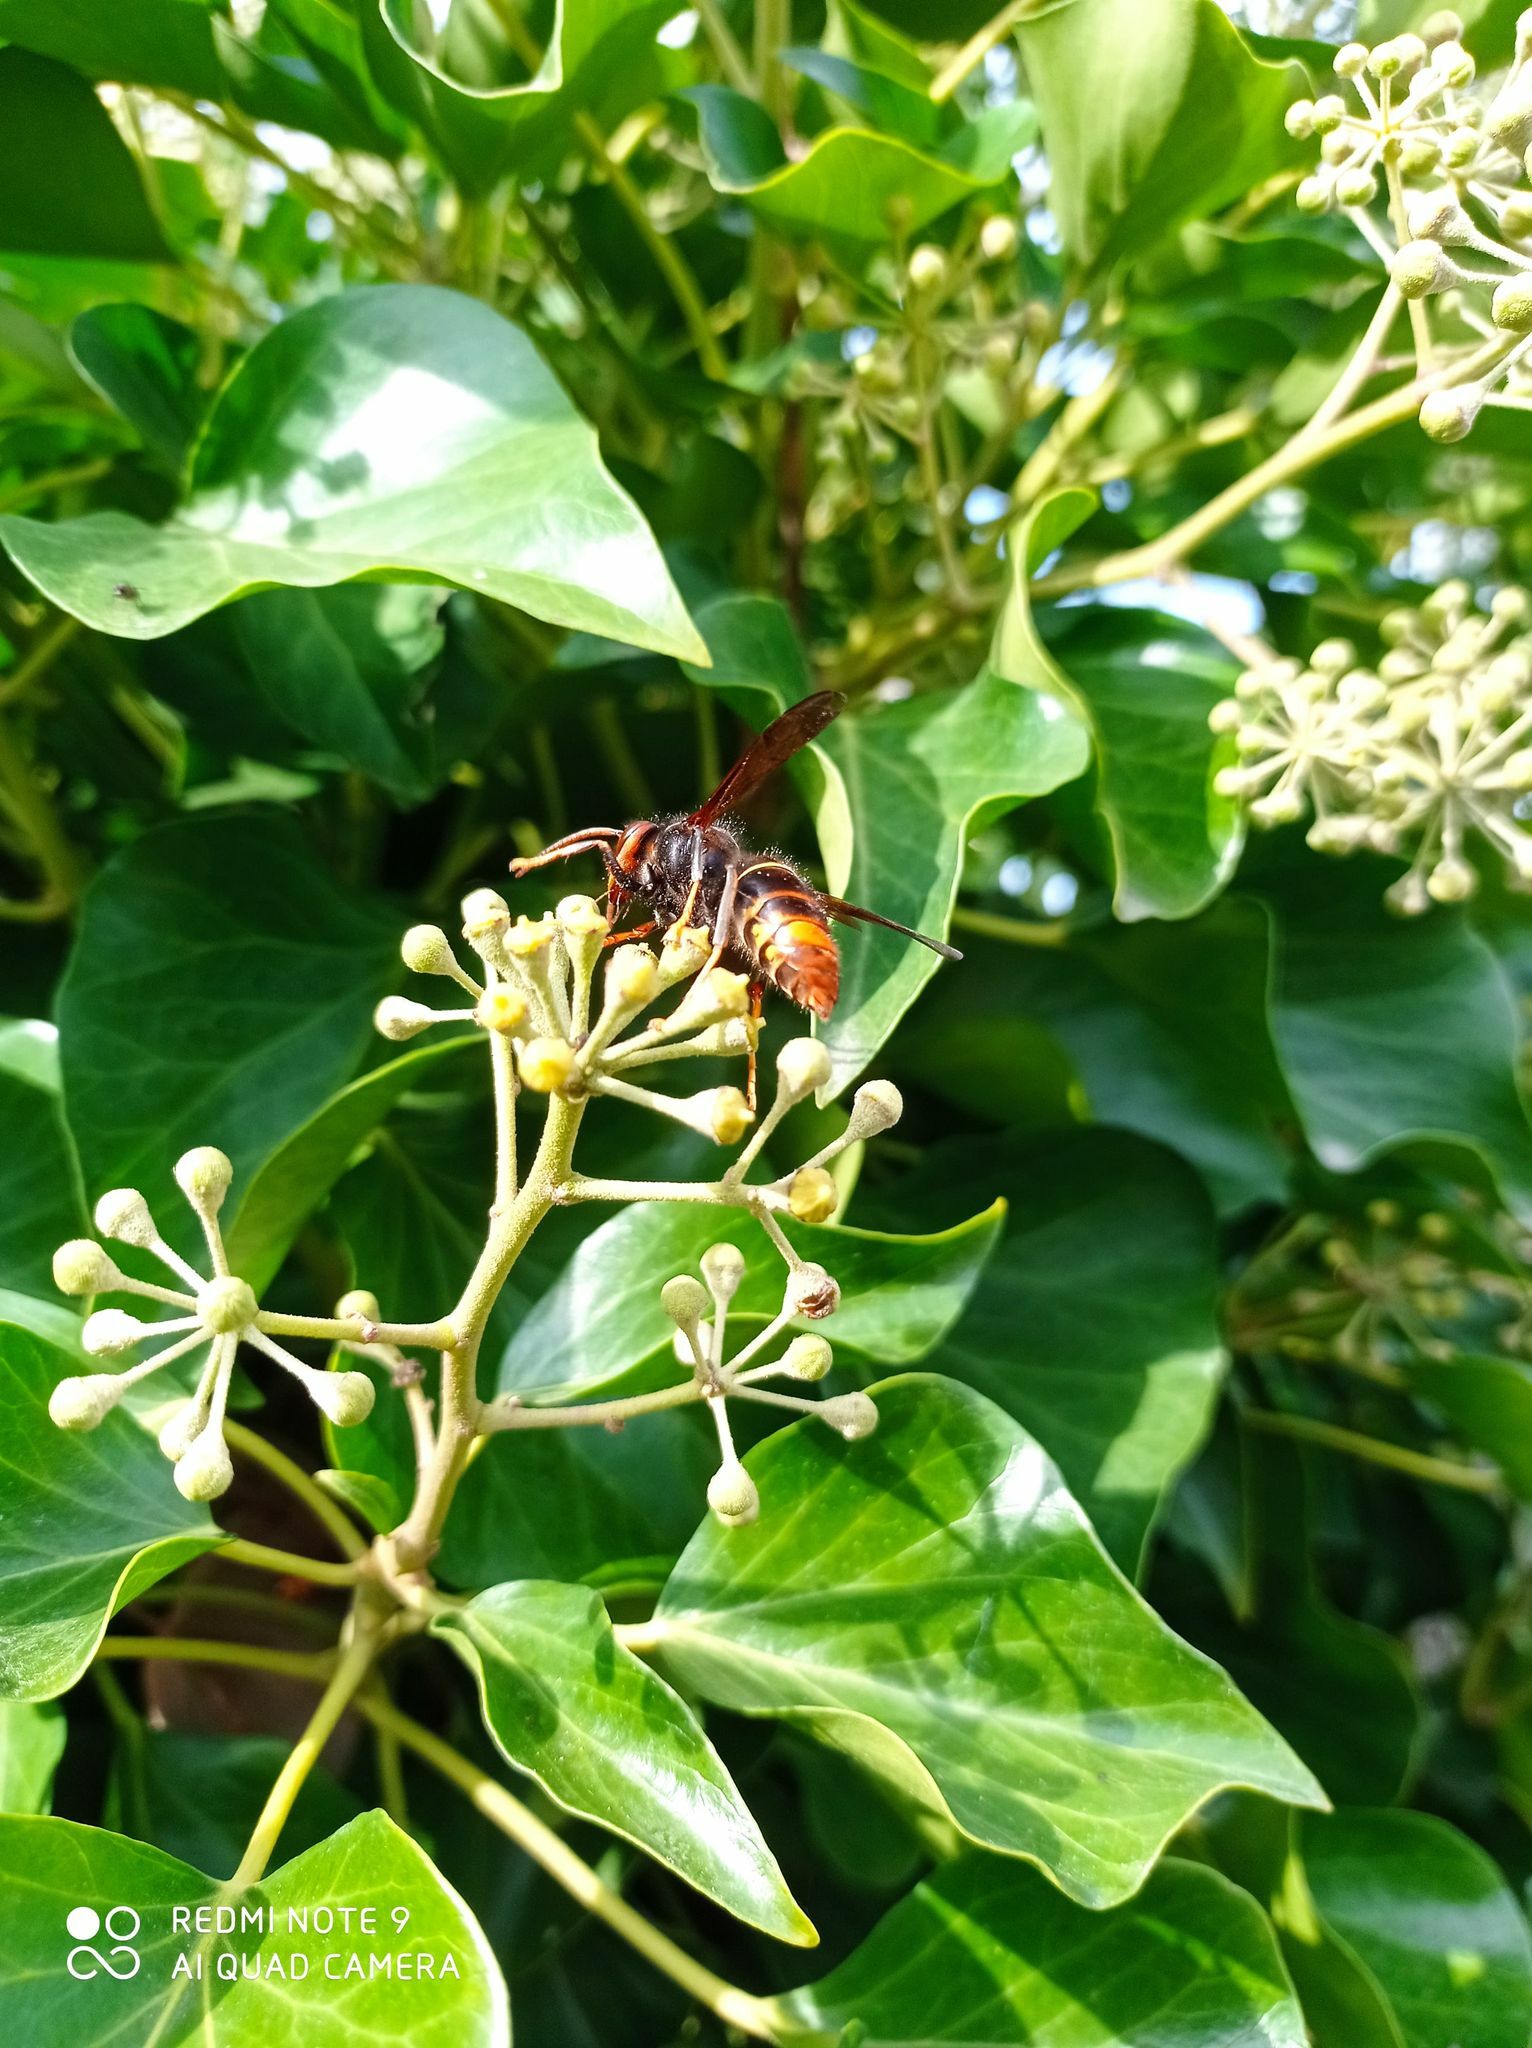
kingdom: Animalia
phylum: Arthropoda
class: Insecta
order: Hymenoptera
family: Vespidae
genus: Vespa
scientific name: Vespa velutina
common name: Asian hornet
